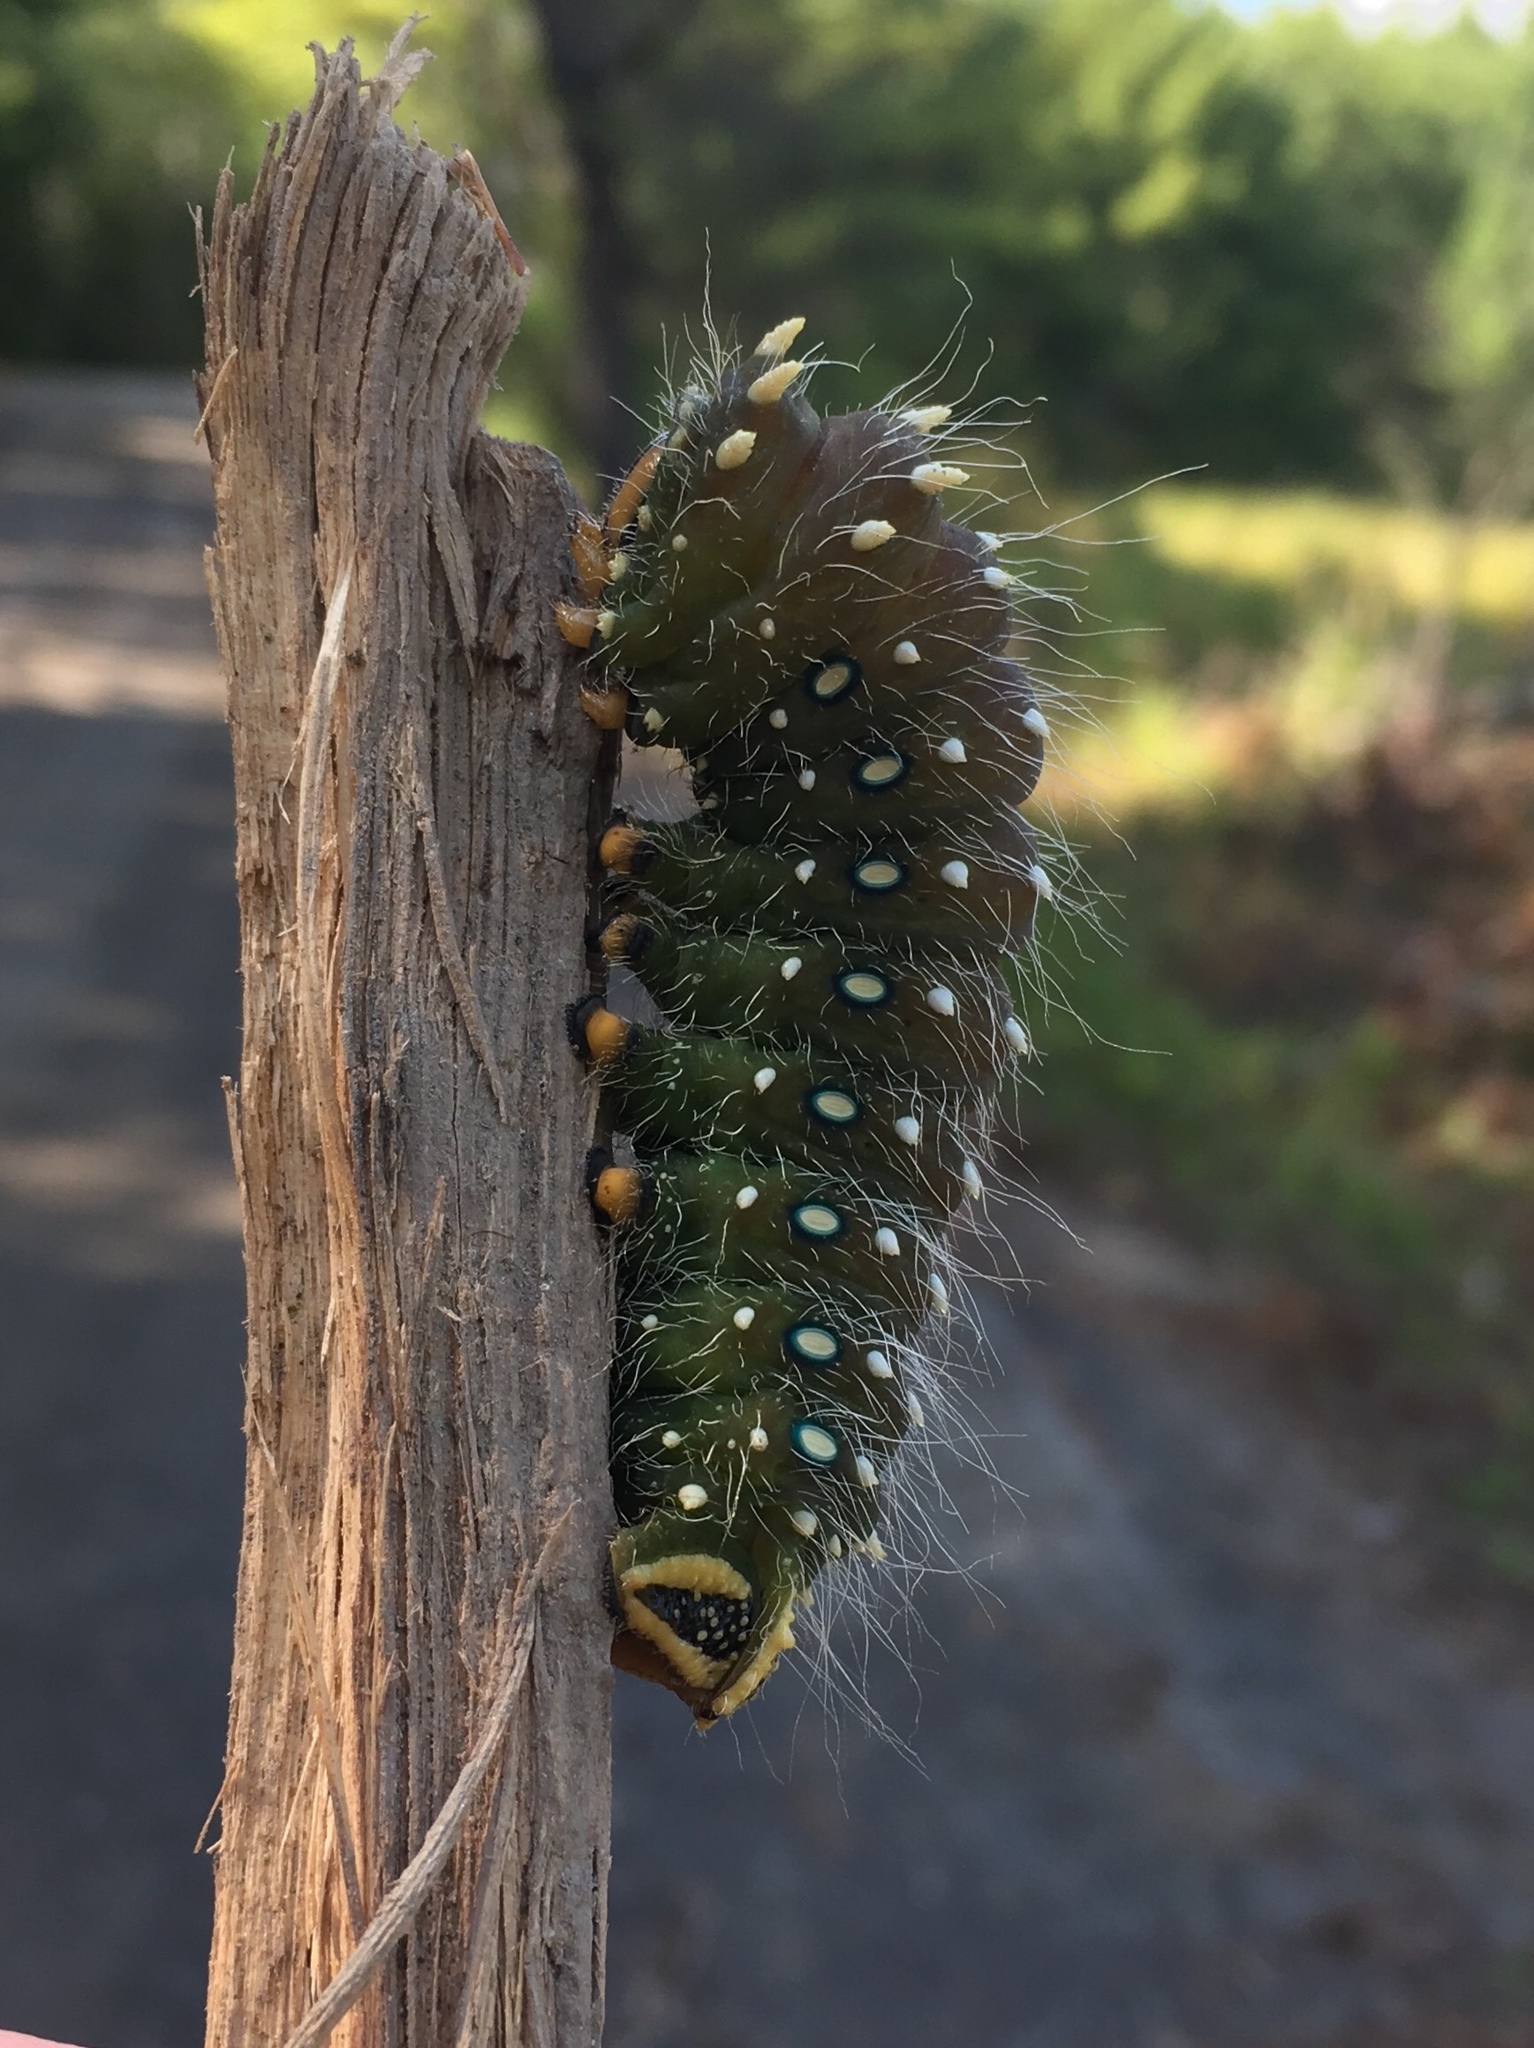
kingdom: Animalia
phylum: Arthropoda
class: Insecta
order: Lepidoptera
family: Saturniidae
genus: Eacles
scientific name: Eacles
